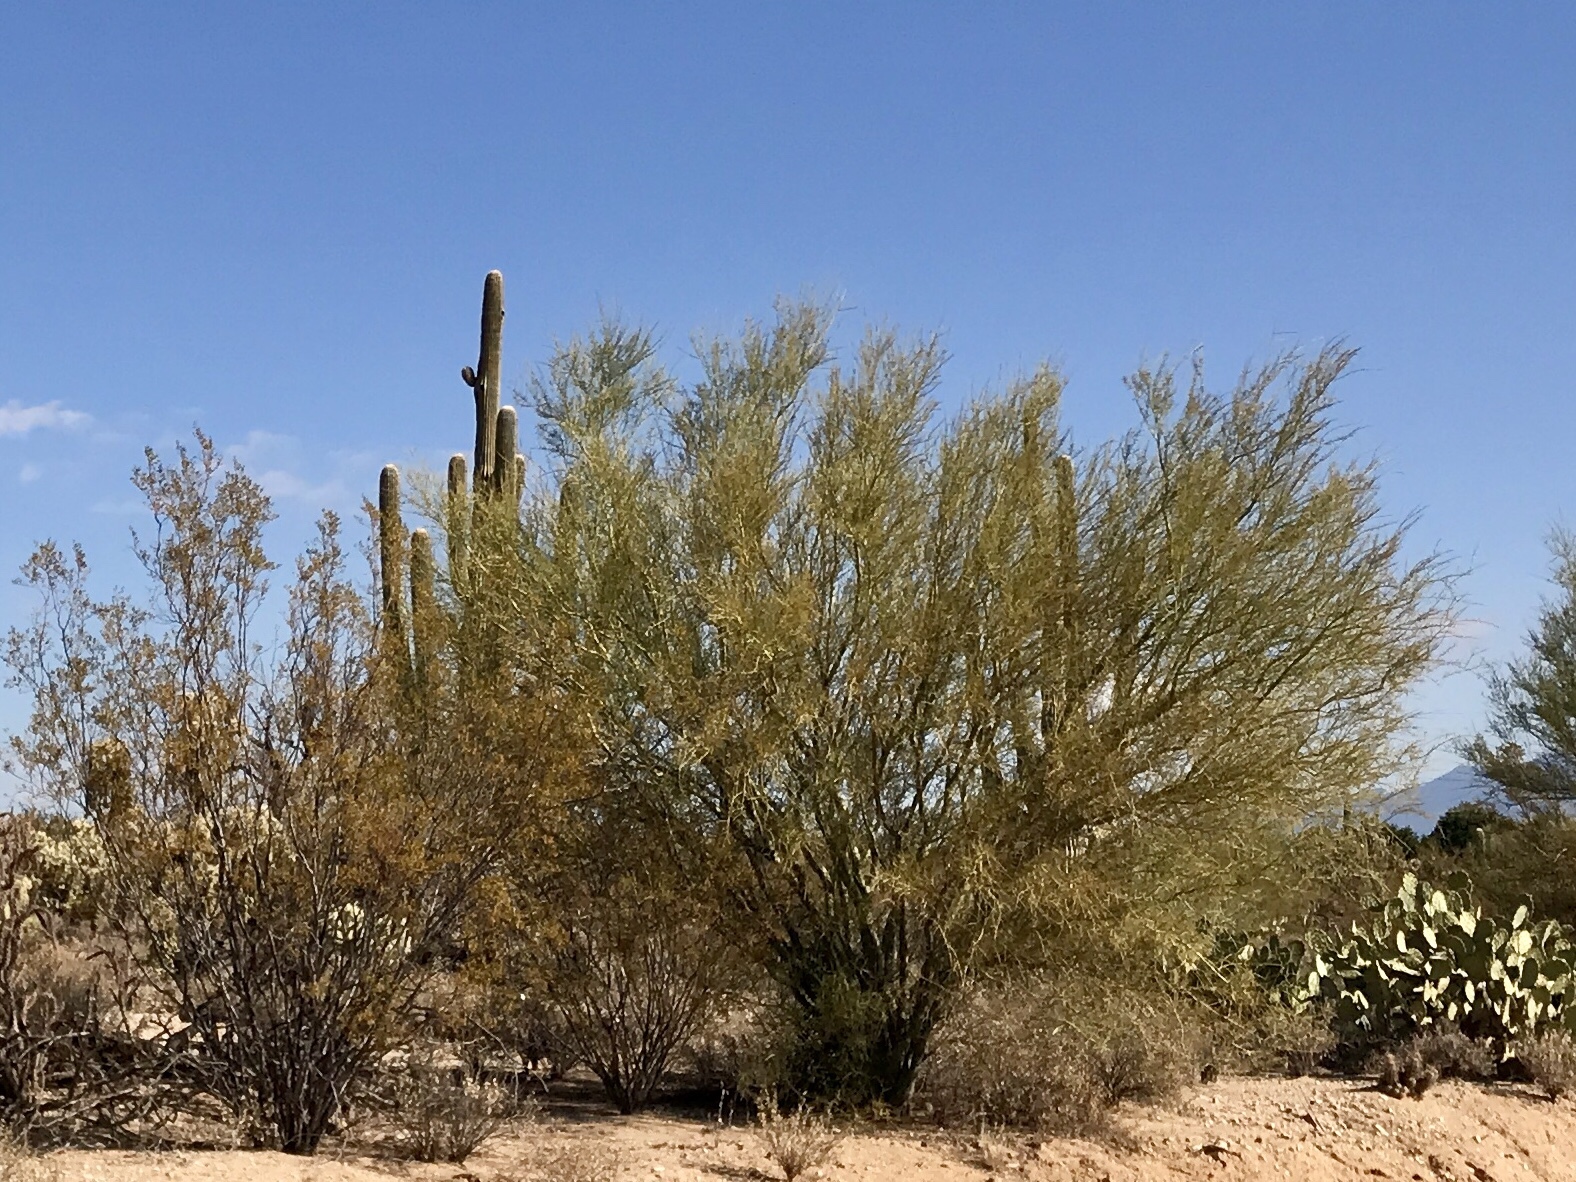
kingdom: Plantae
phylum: Tracheophyta
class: Magnoliopsida
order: Fabales
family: Fabaceae
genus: Parkinsonia
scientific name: Parkinsonia microphylla
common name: Yellow paloverde
